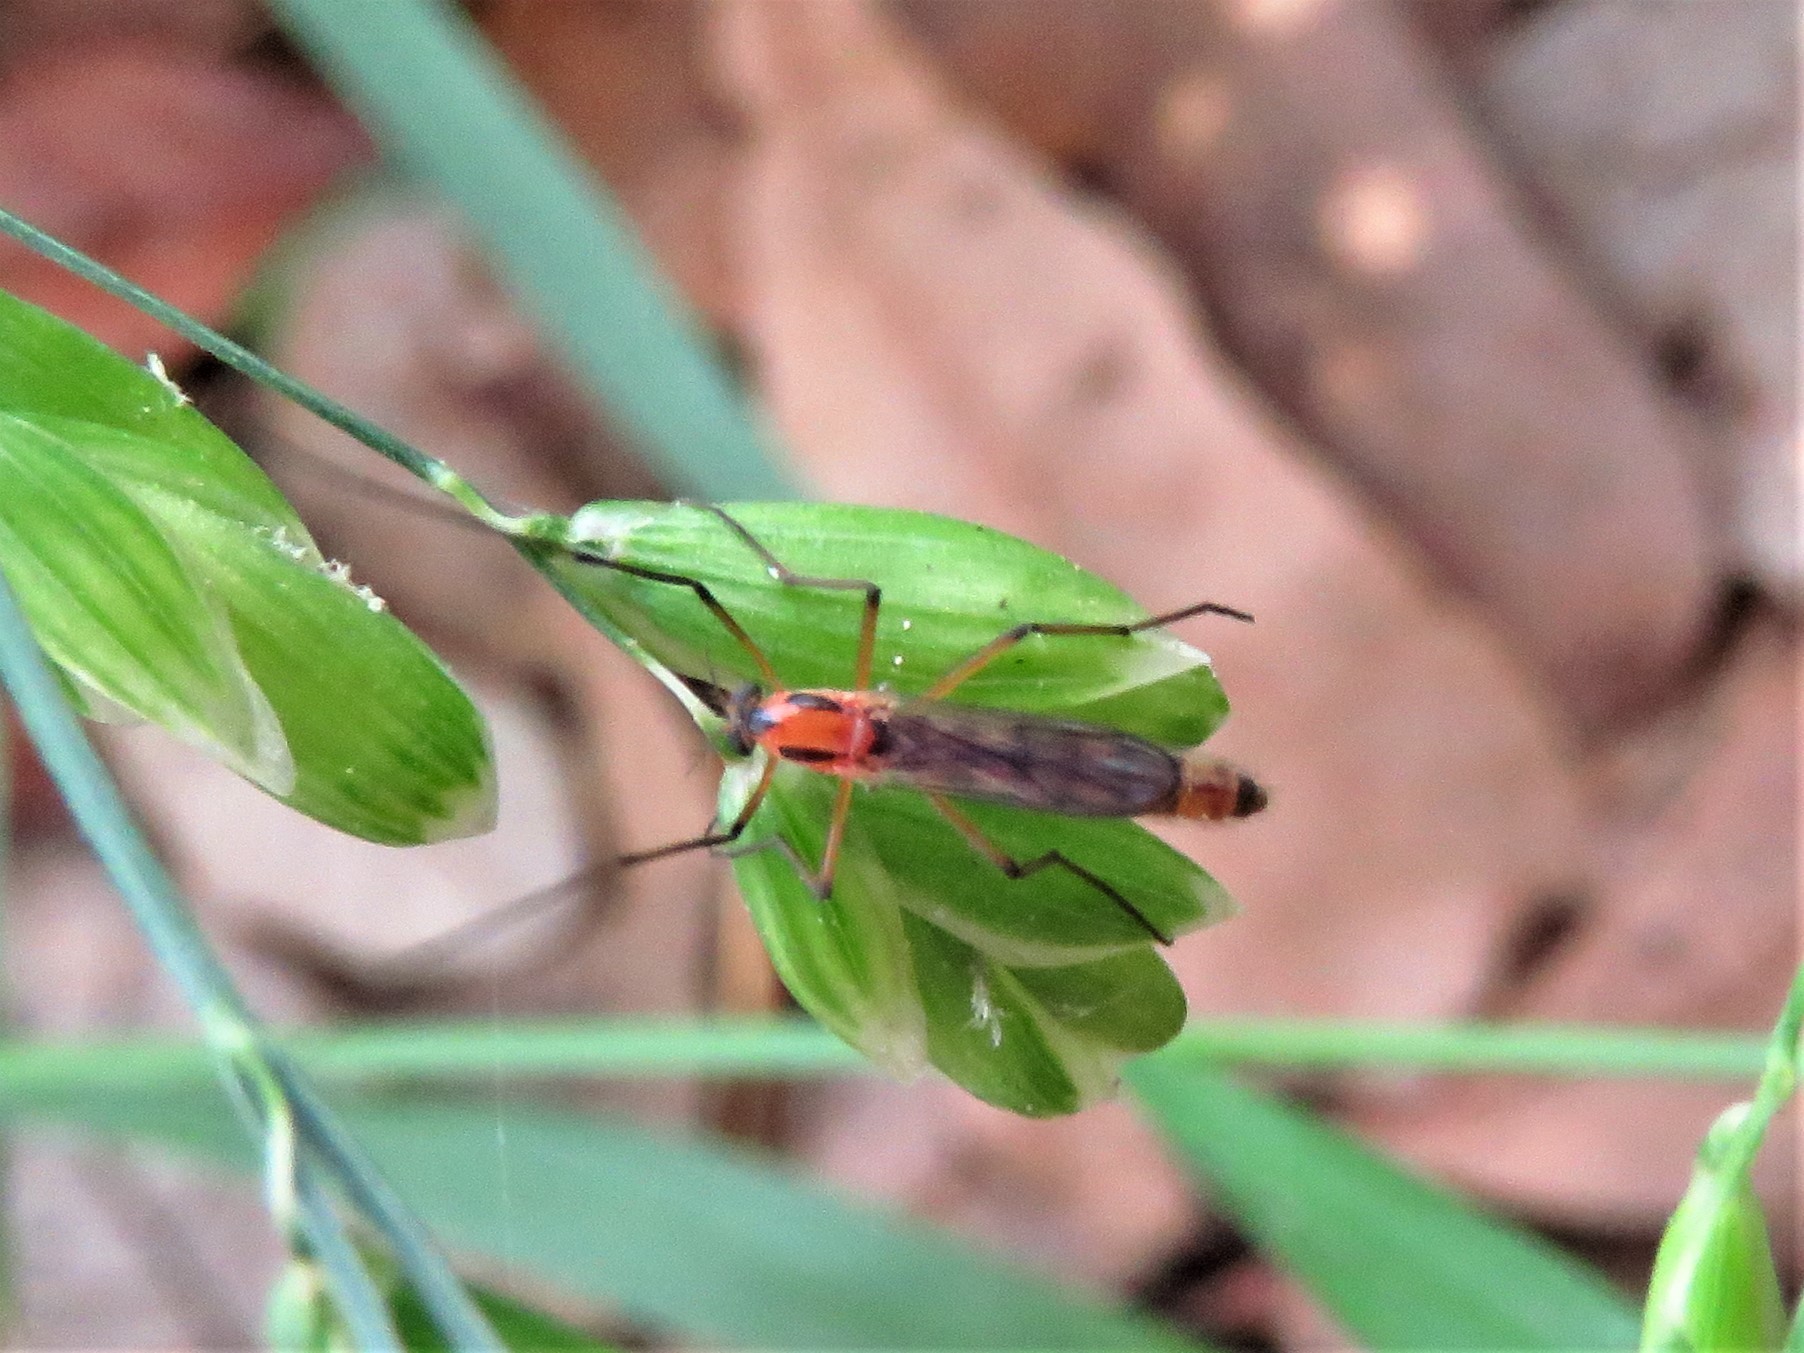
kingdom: Animalia
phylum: Arthropoda
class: Insecta
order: Diptera
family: Chironomidae
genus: Axarus
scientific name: Axarus
